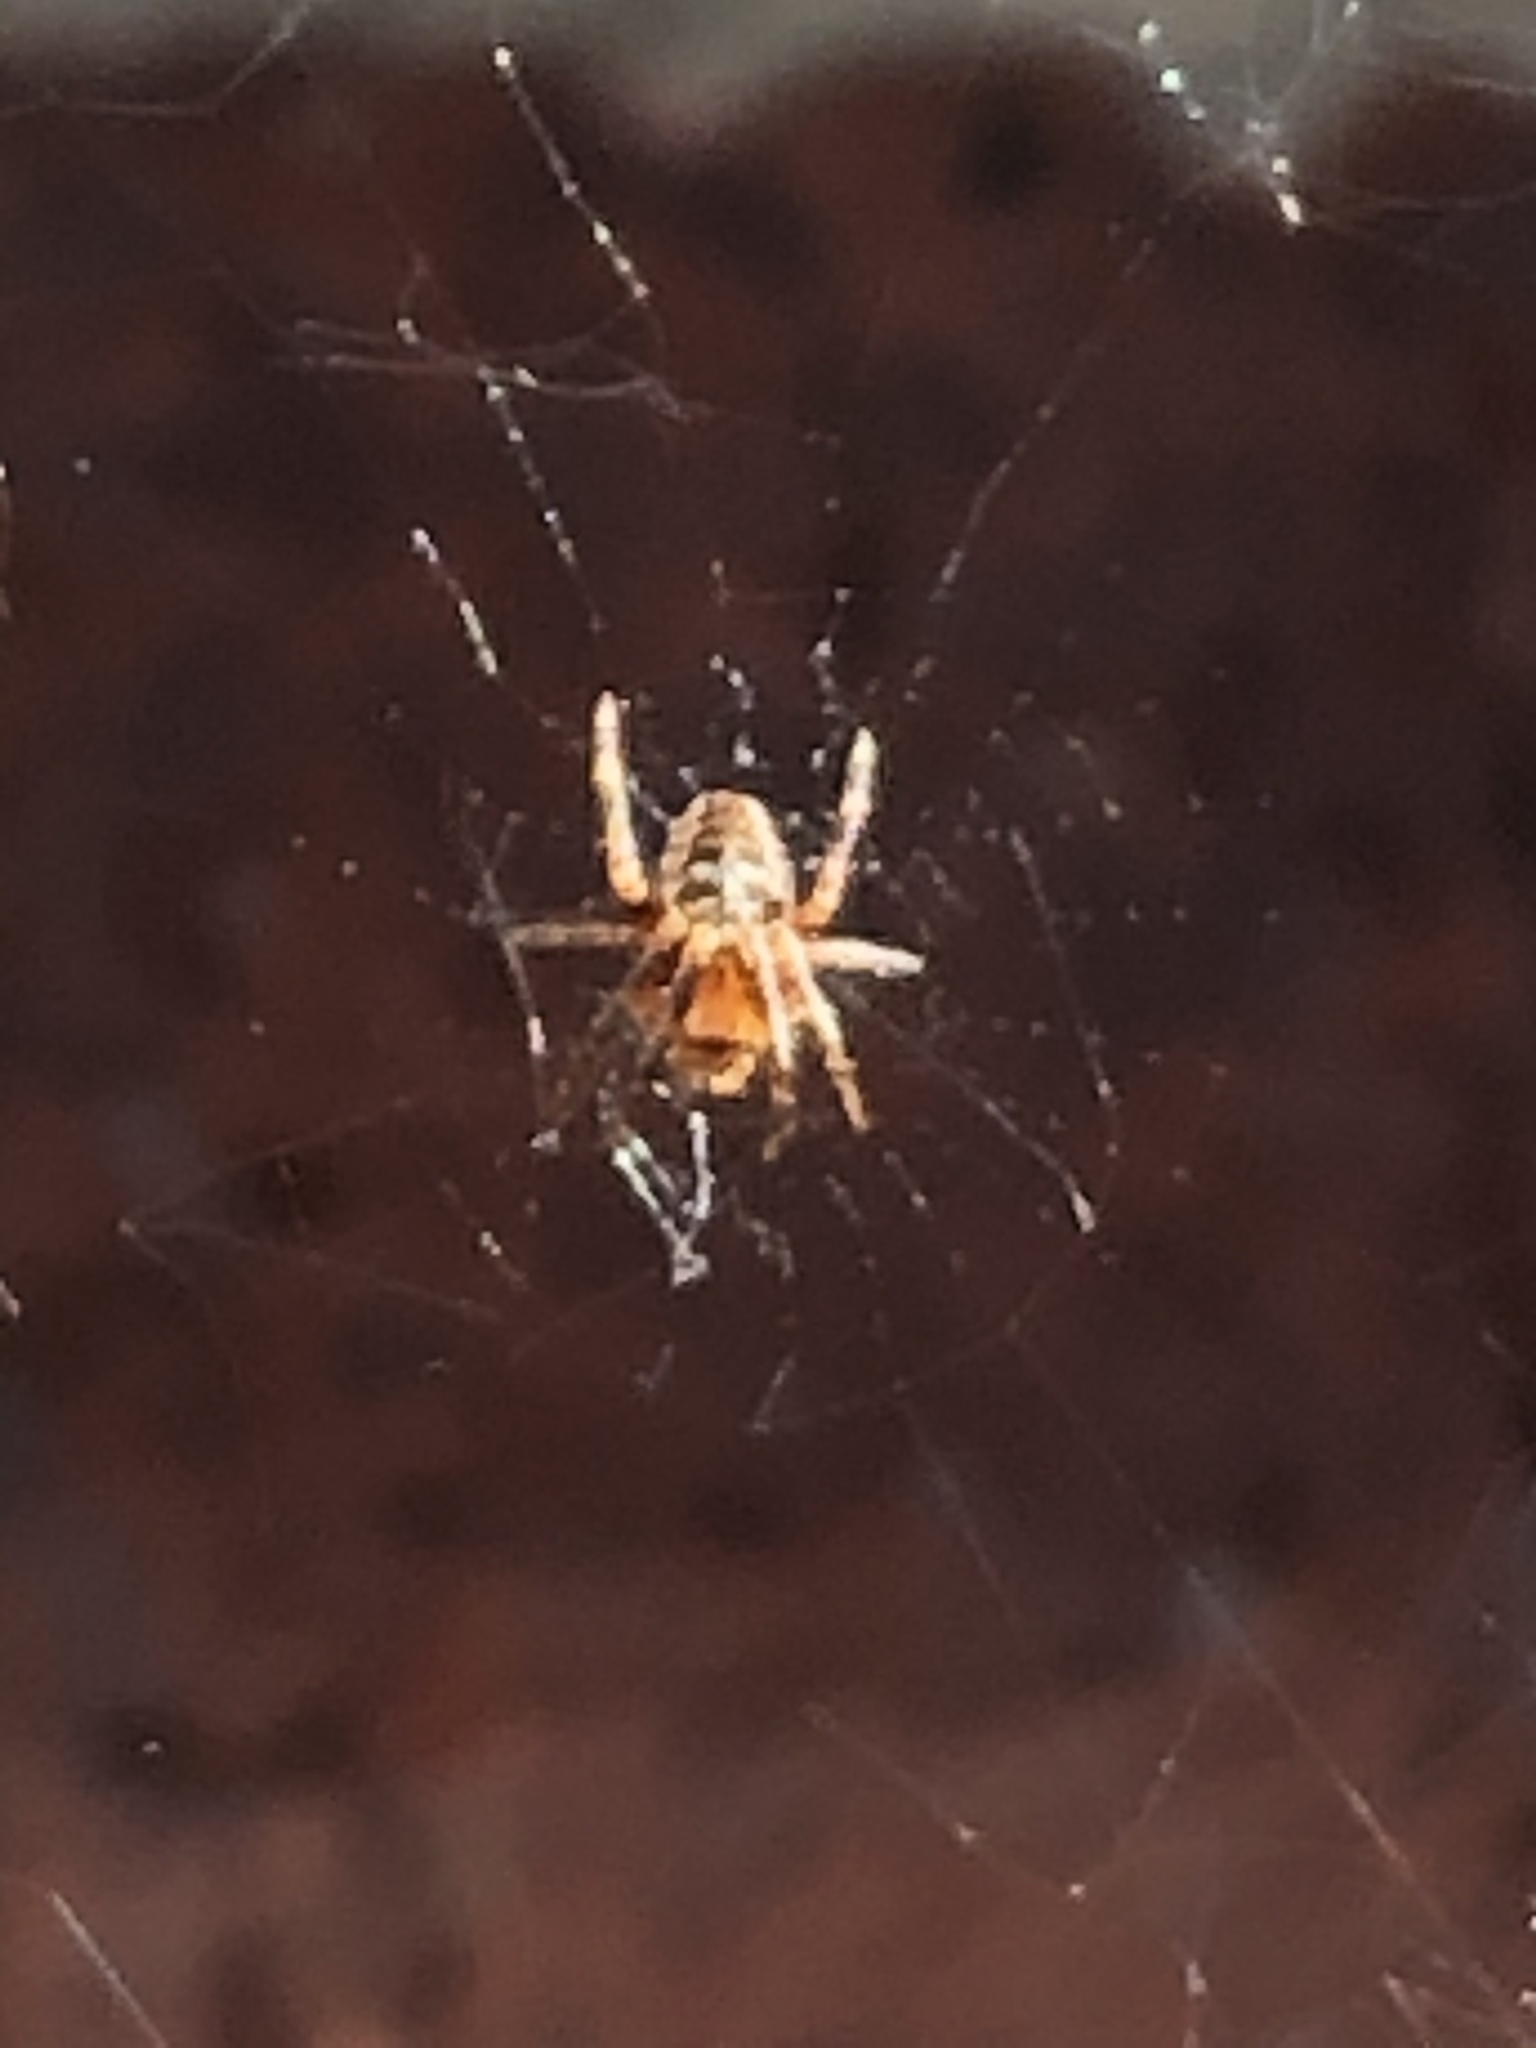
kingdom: Animalia
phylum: Arthropoda
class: Arachnida
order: Araneae
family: Araneidae
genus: Araneus
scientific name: Araneus diadematus
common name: Cross orbweaver
